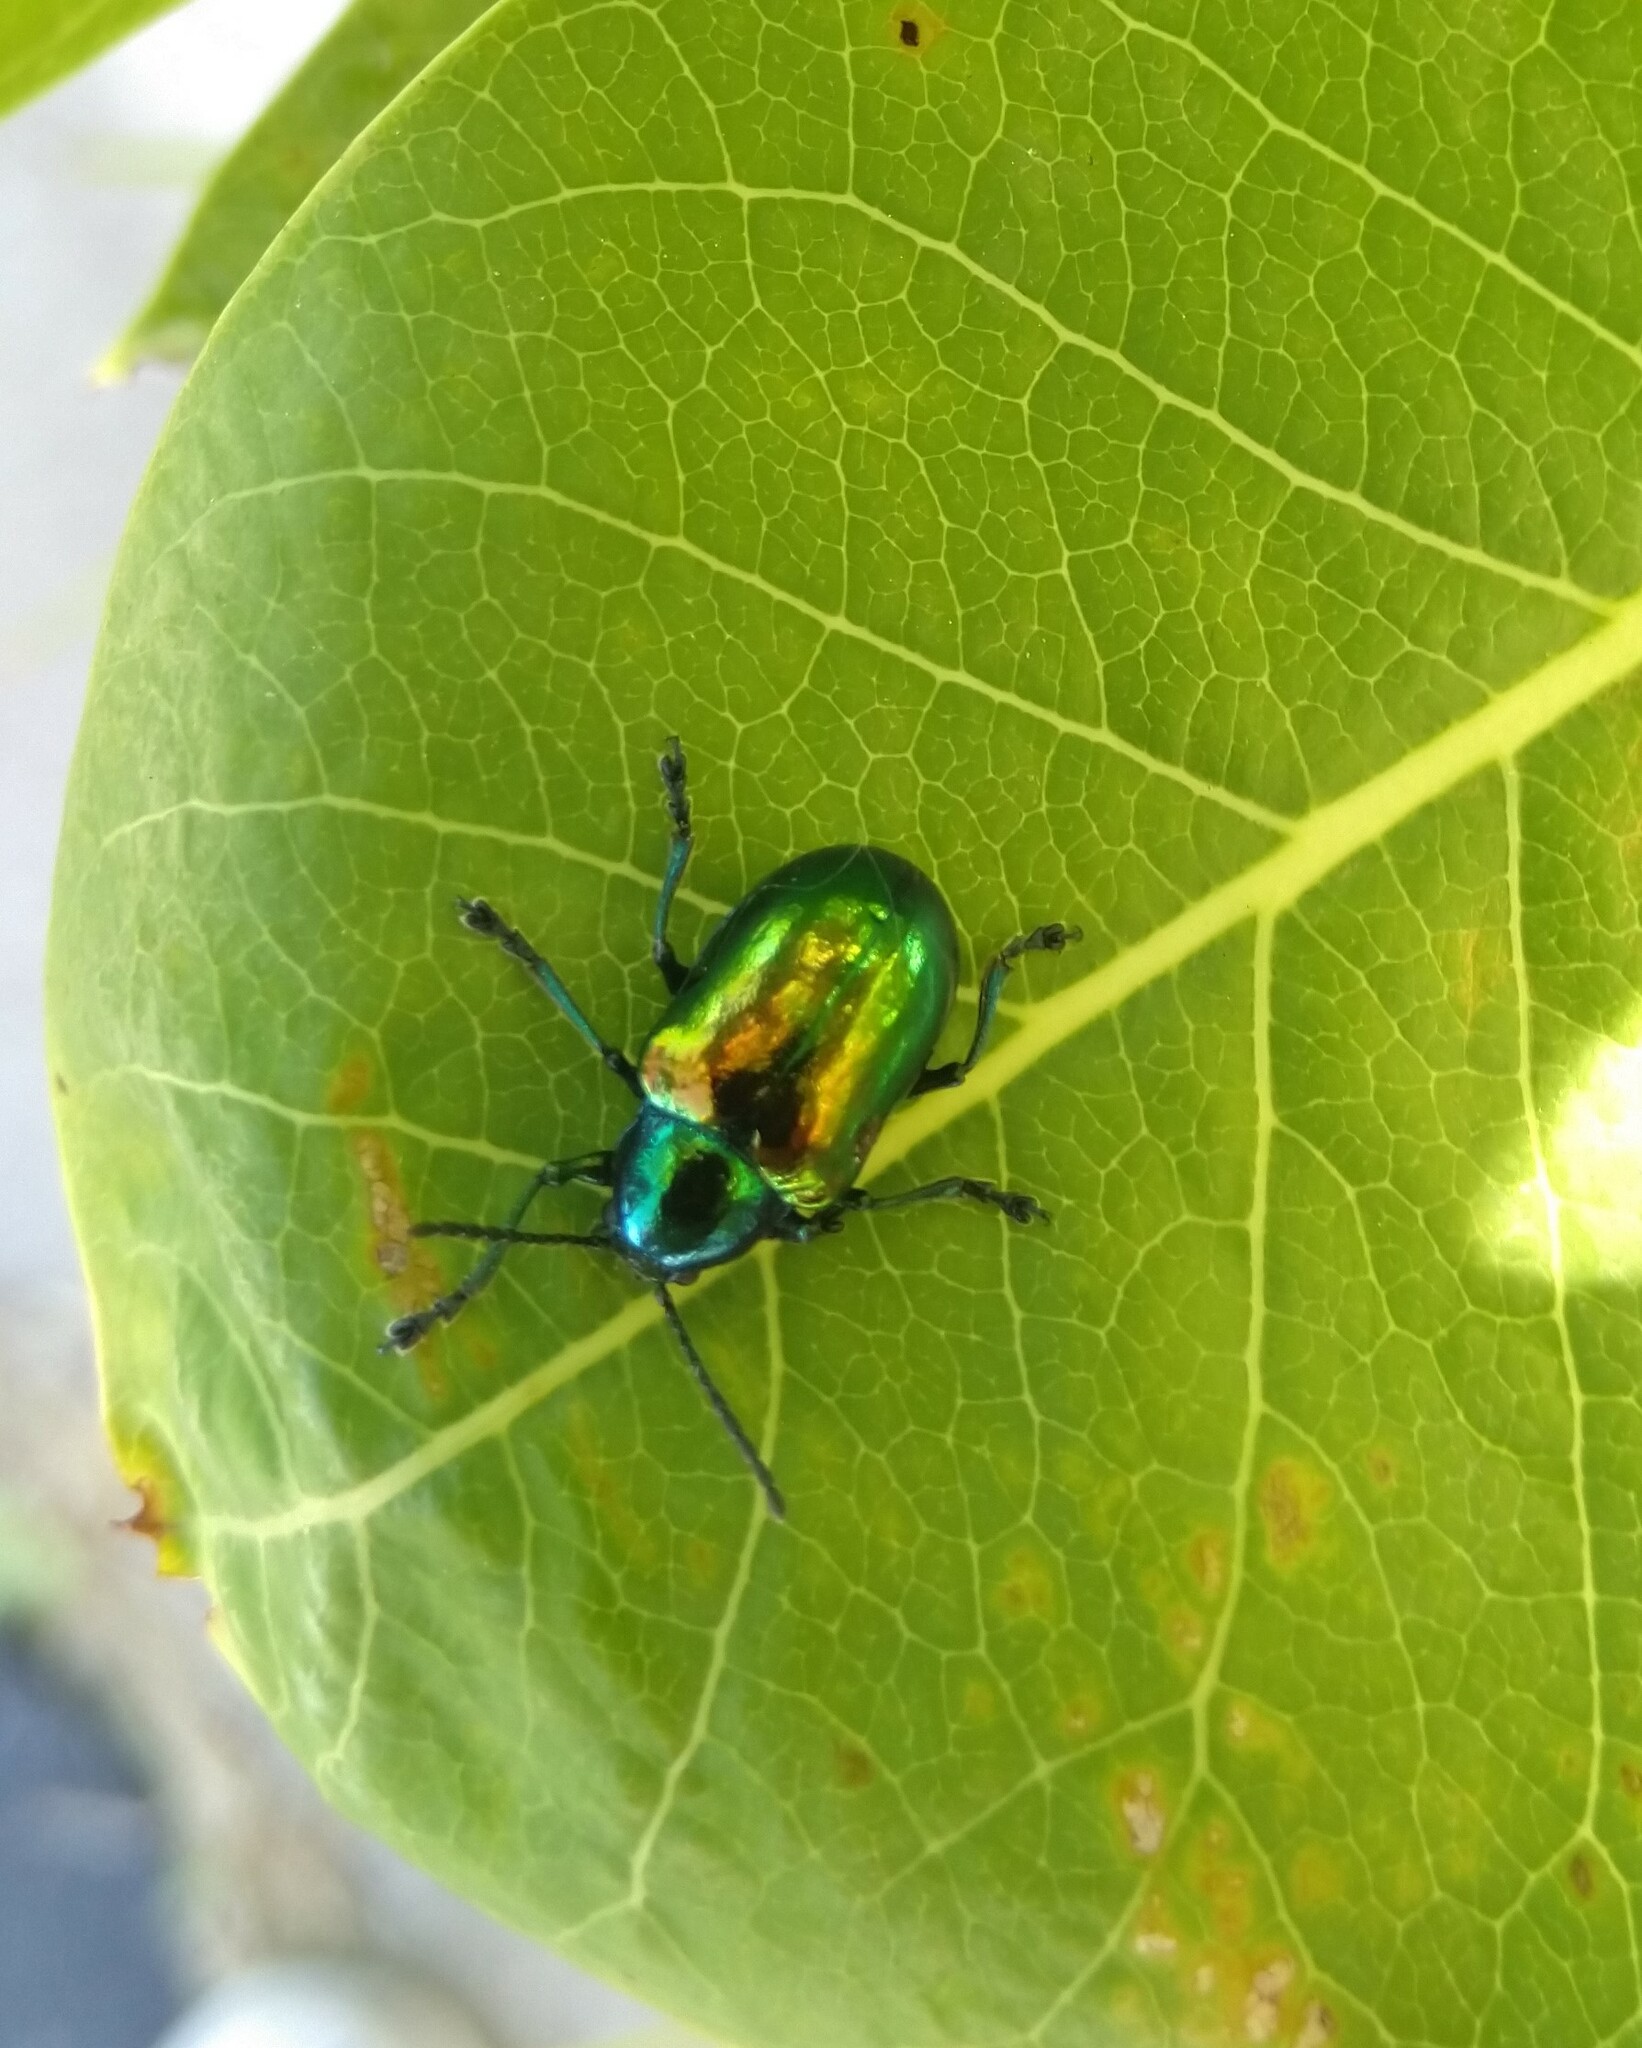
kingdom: Animalia
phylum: Arthropoda
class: Insecta
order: Coleoptera
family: Chrysomelidae
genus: Chrysochus
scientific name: Chrysochus auratus
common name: Dogbane leaf beetle
